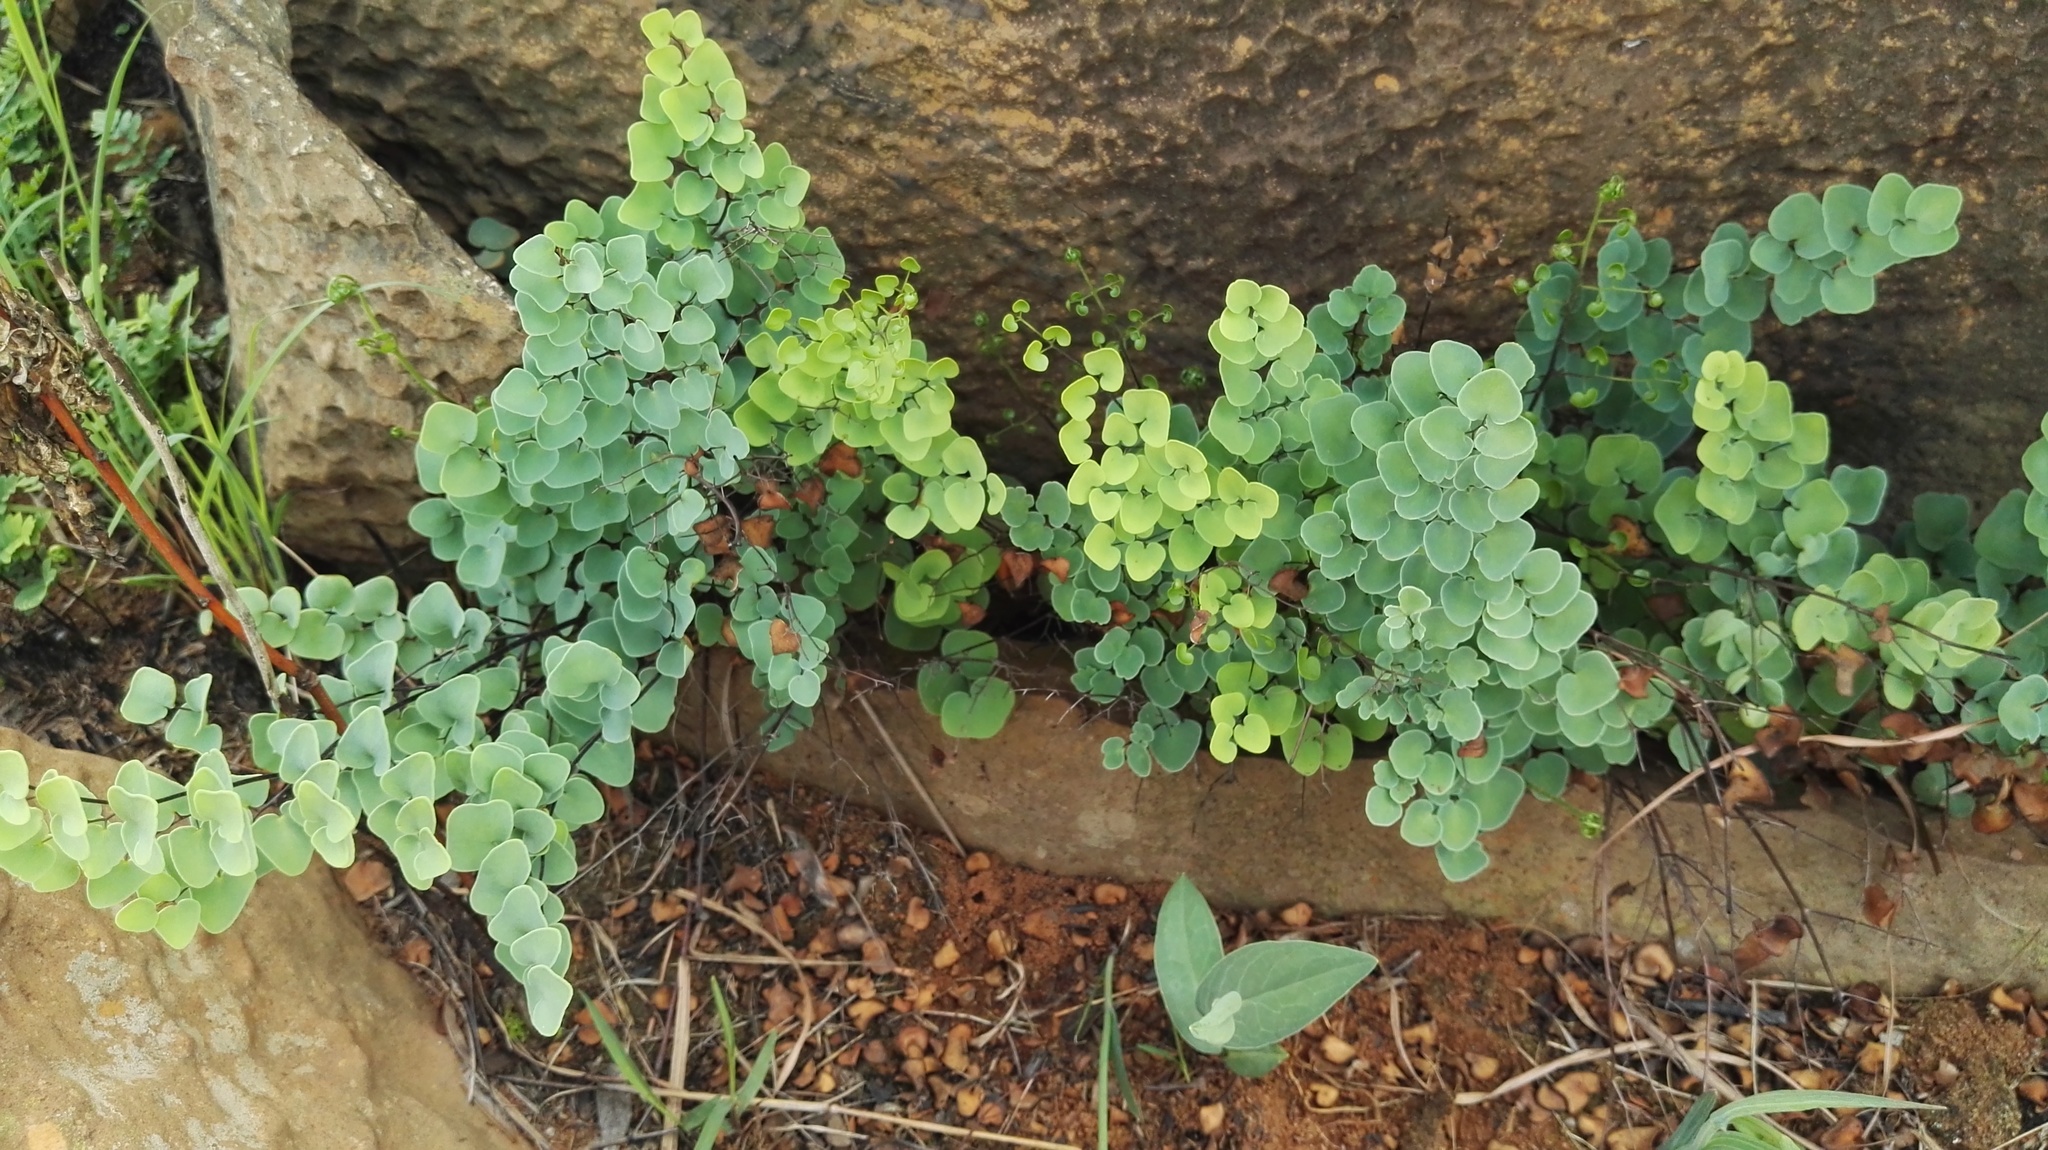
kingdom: Plantae
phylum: Tracheophyta
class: Polypodiopsida
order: Polypodiales
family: Pteridaceae
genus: Pellaea
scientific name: Pellaea calomelanos
